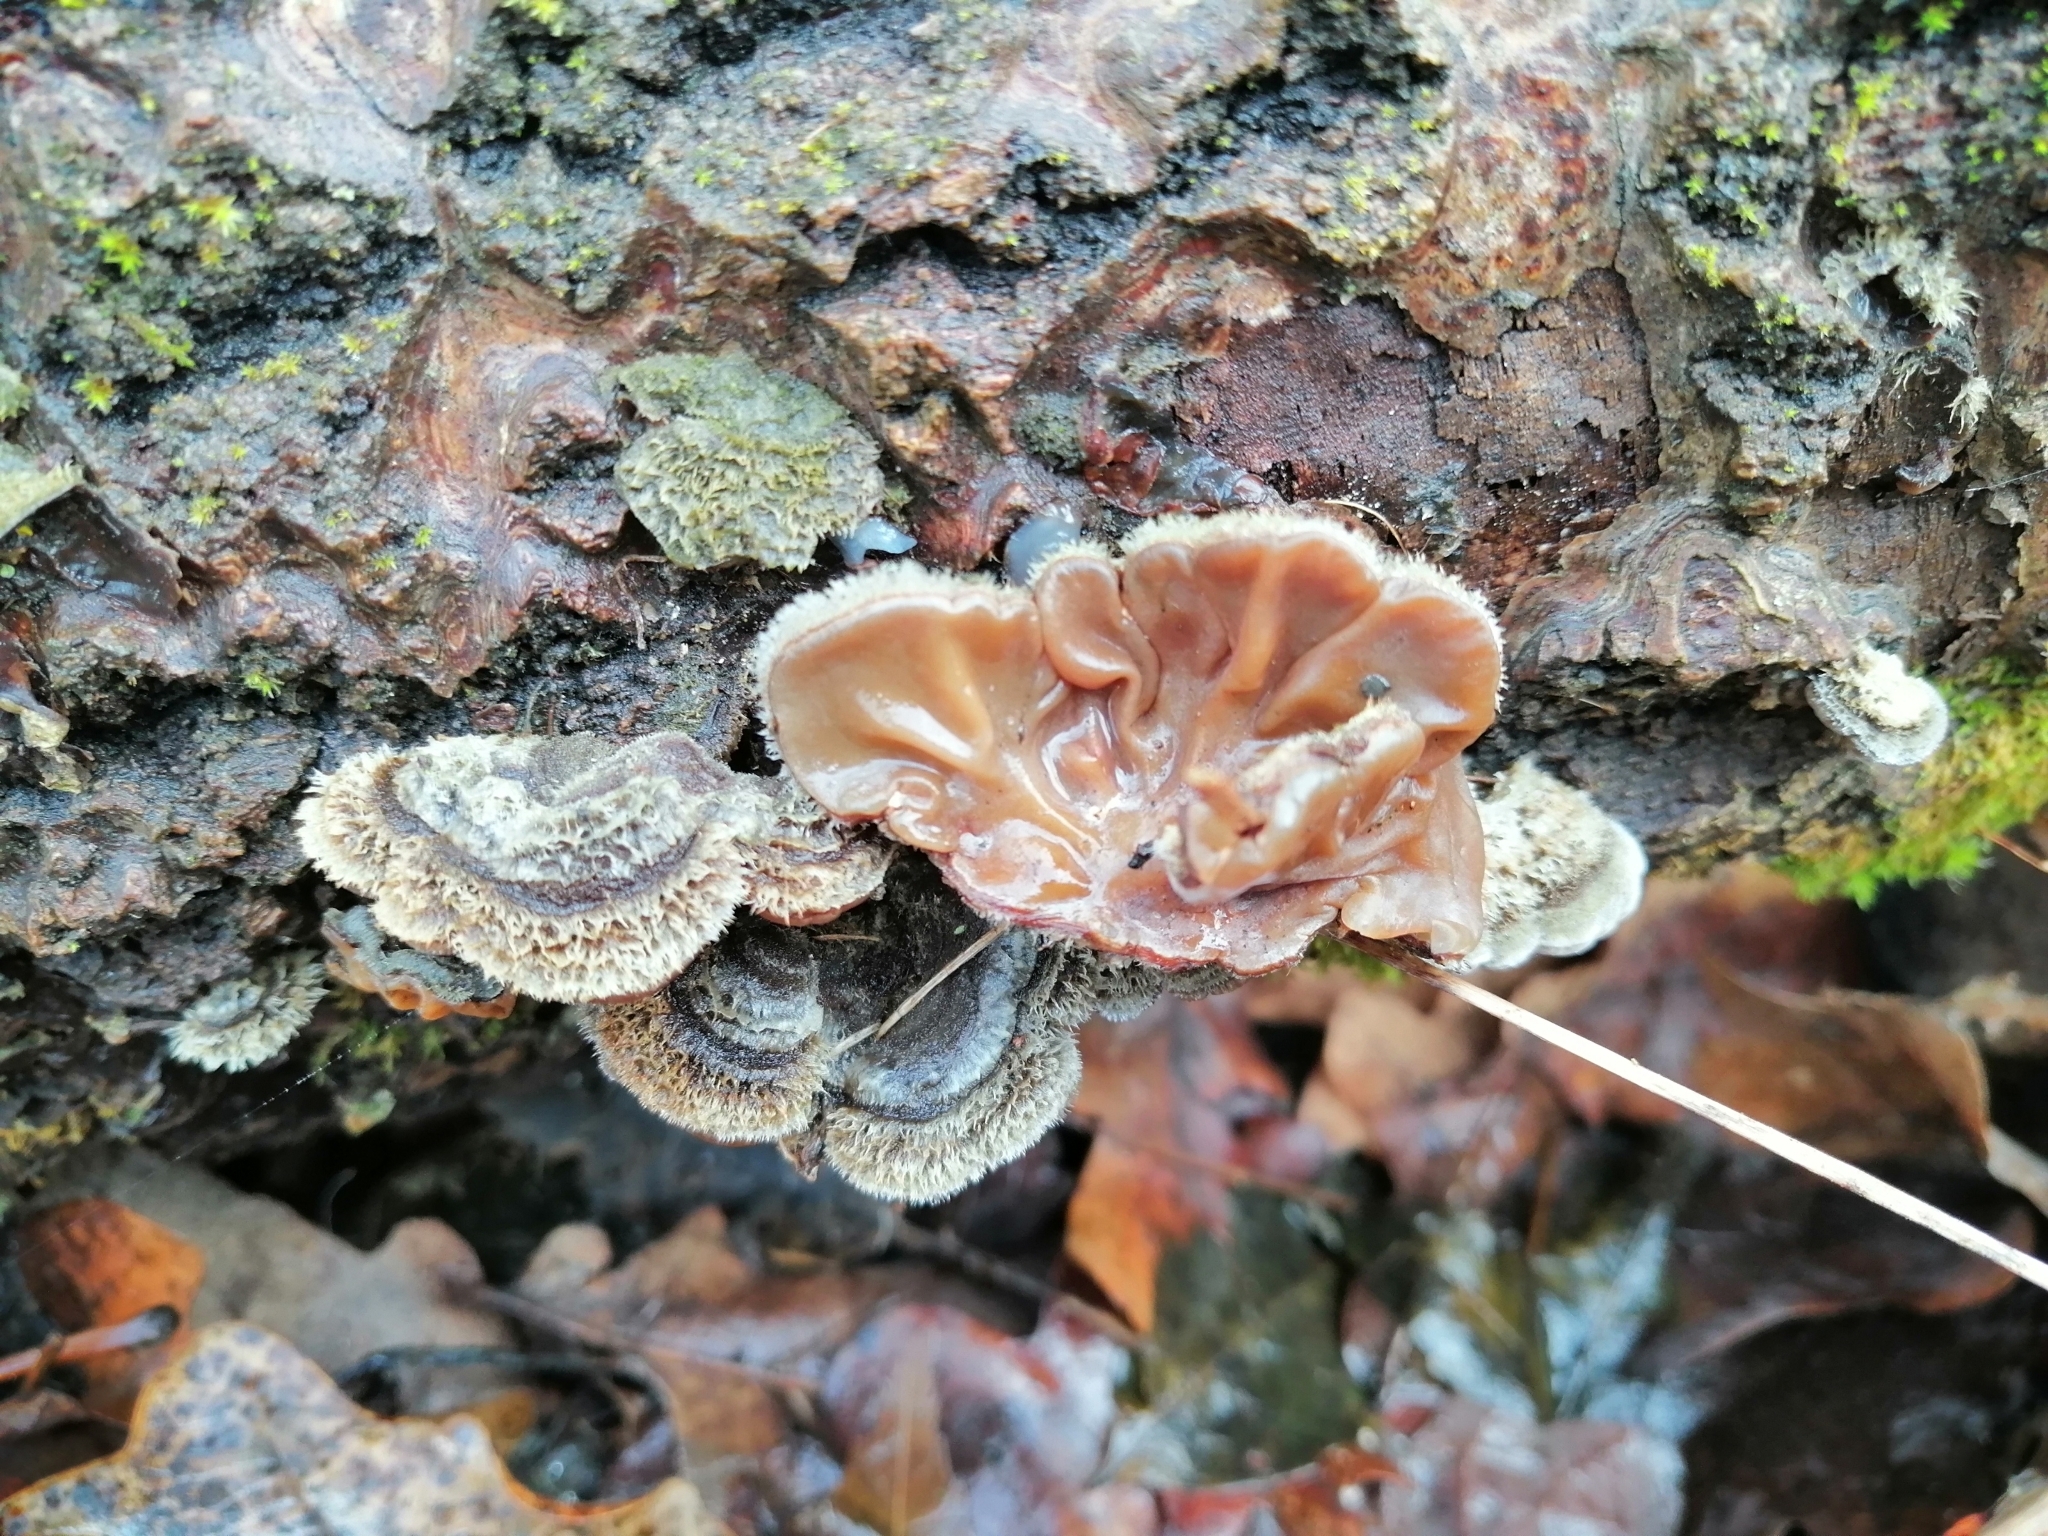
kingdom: Fungi
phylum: Basidiomycota
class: Agaricomycetes
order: Auriculariales
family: Auriculariaceae
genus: Auricularia
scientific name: Auricularia mesenterica
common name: Tripe fungus
